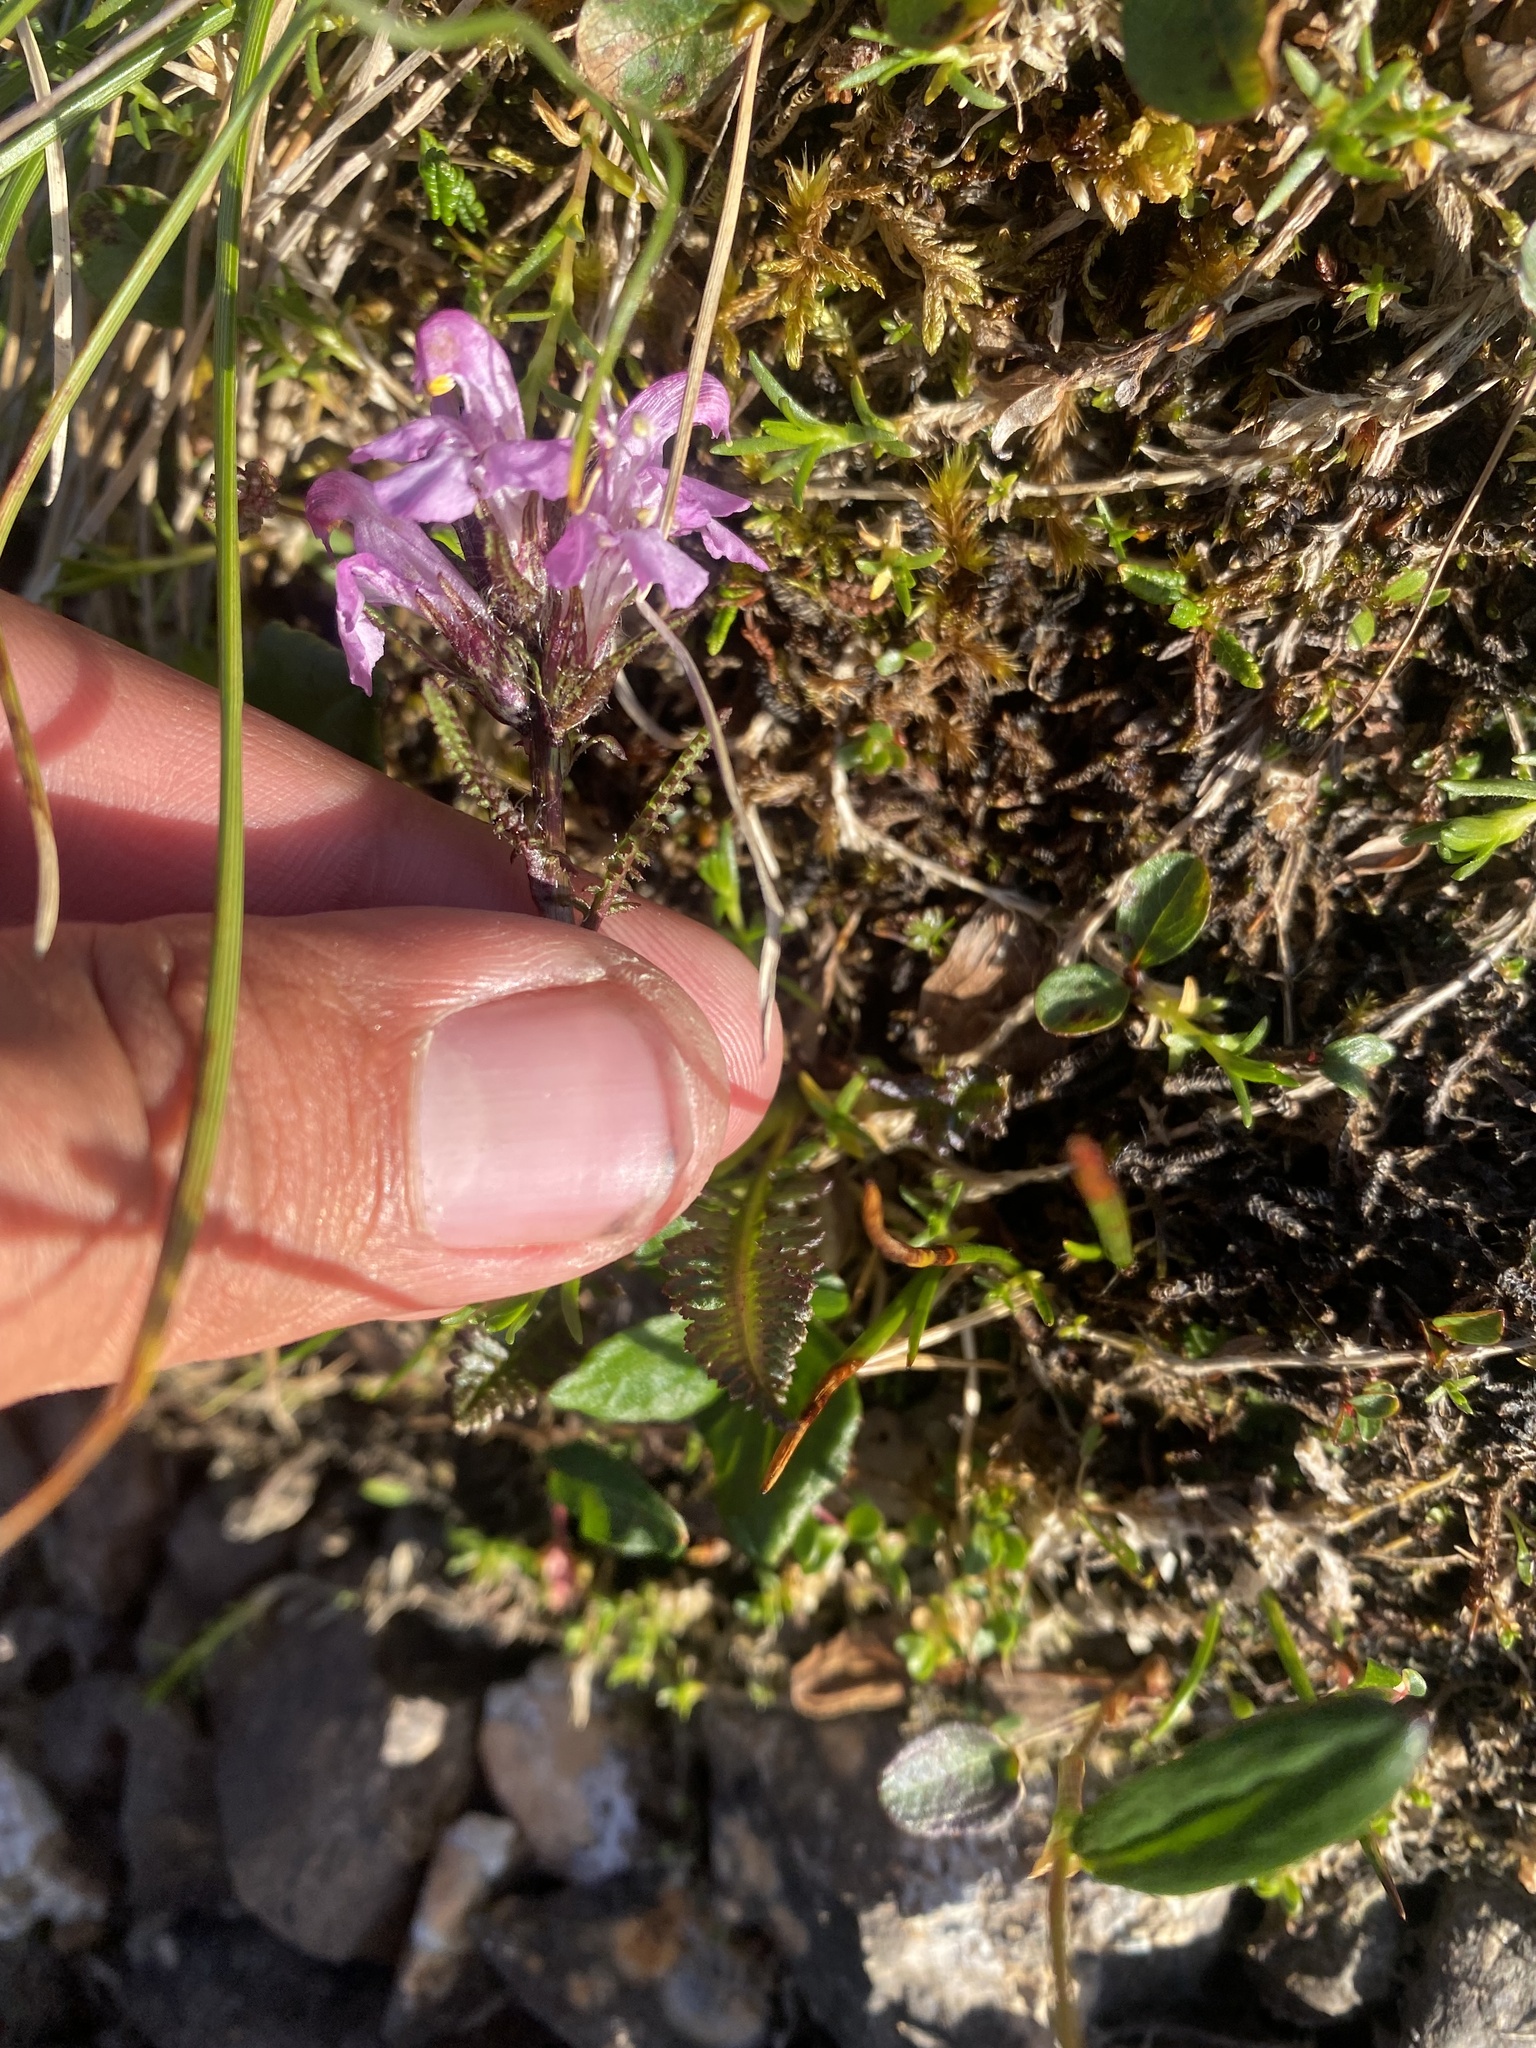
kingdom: Plantae
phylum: Tracheophyta
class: Magnoliopsida
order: Lamiales
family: Orobanchaceae
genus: Pedicularis
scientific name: Pedicularis amoena
